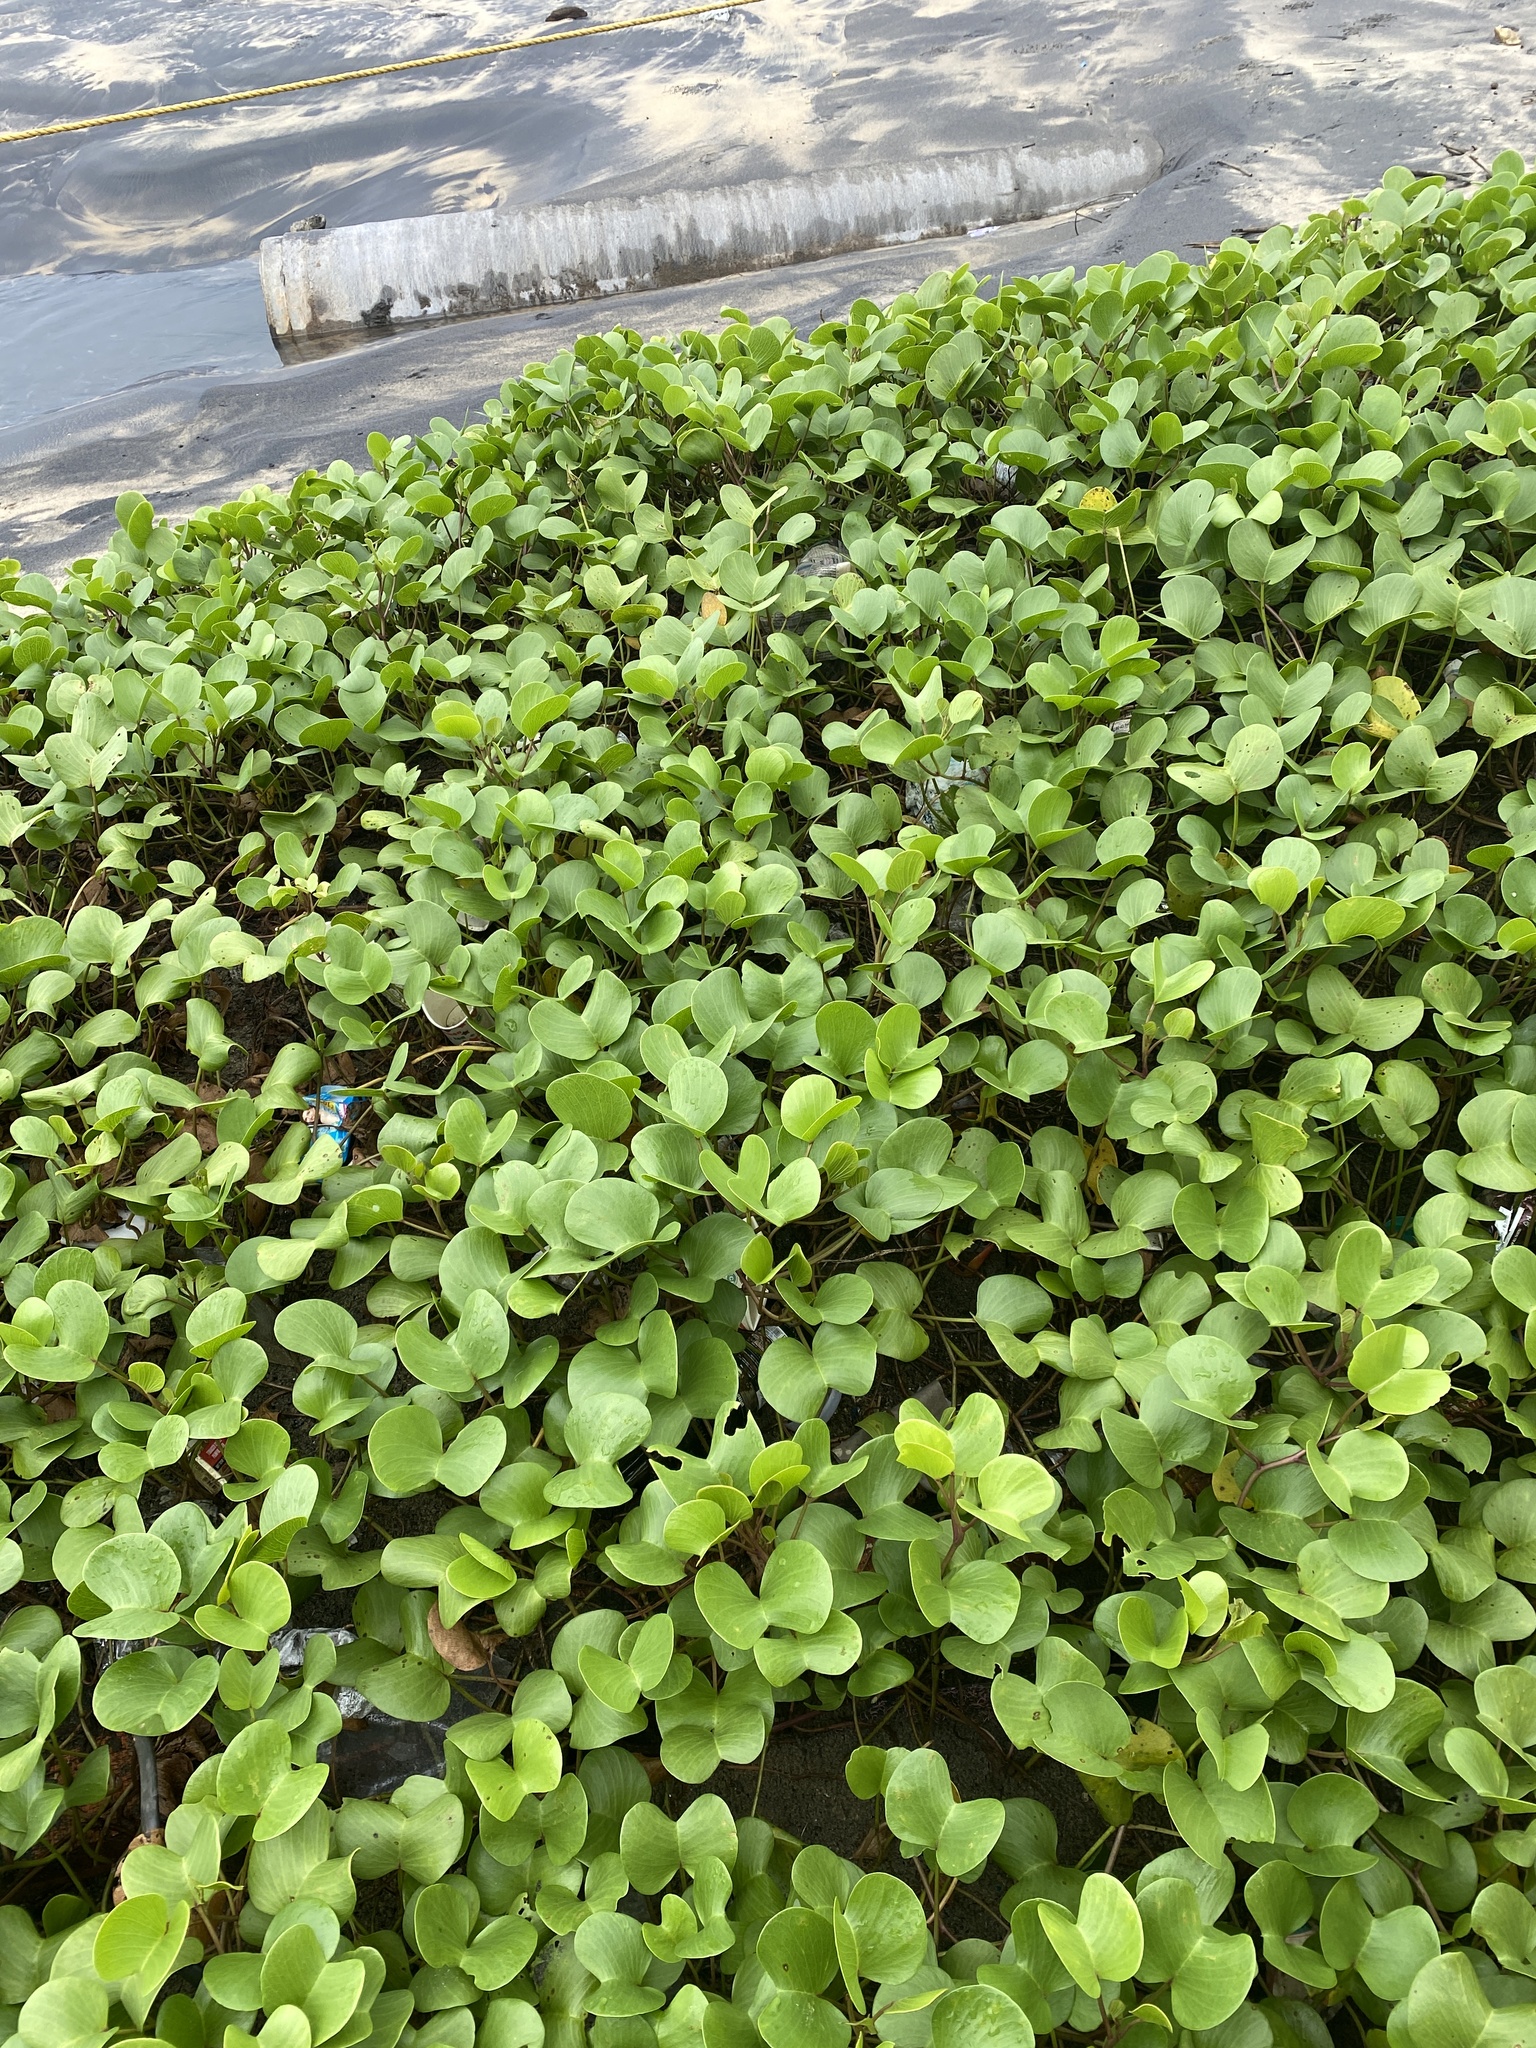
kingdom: Plantae
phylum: Tracheophyta
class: Magnoliopsida
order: Solanales
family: Convolvulaceae
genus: Ipomoea
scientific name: Ipomoea pes-caprae
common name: Beach morning glory
